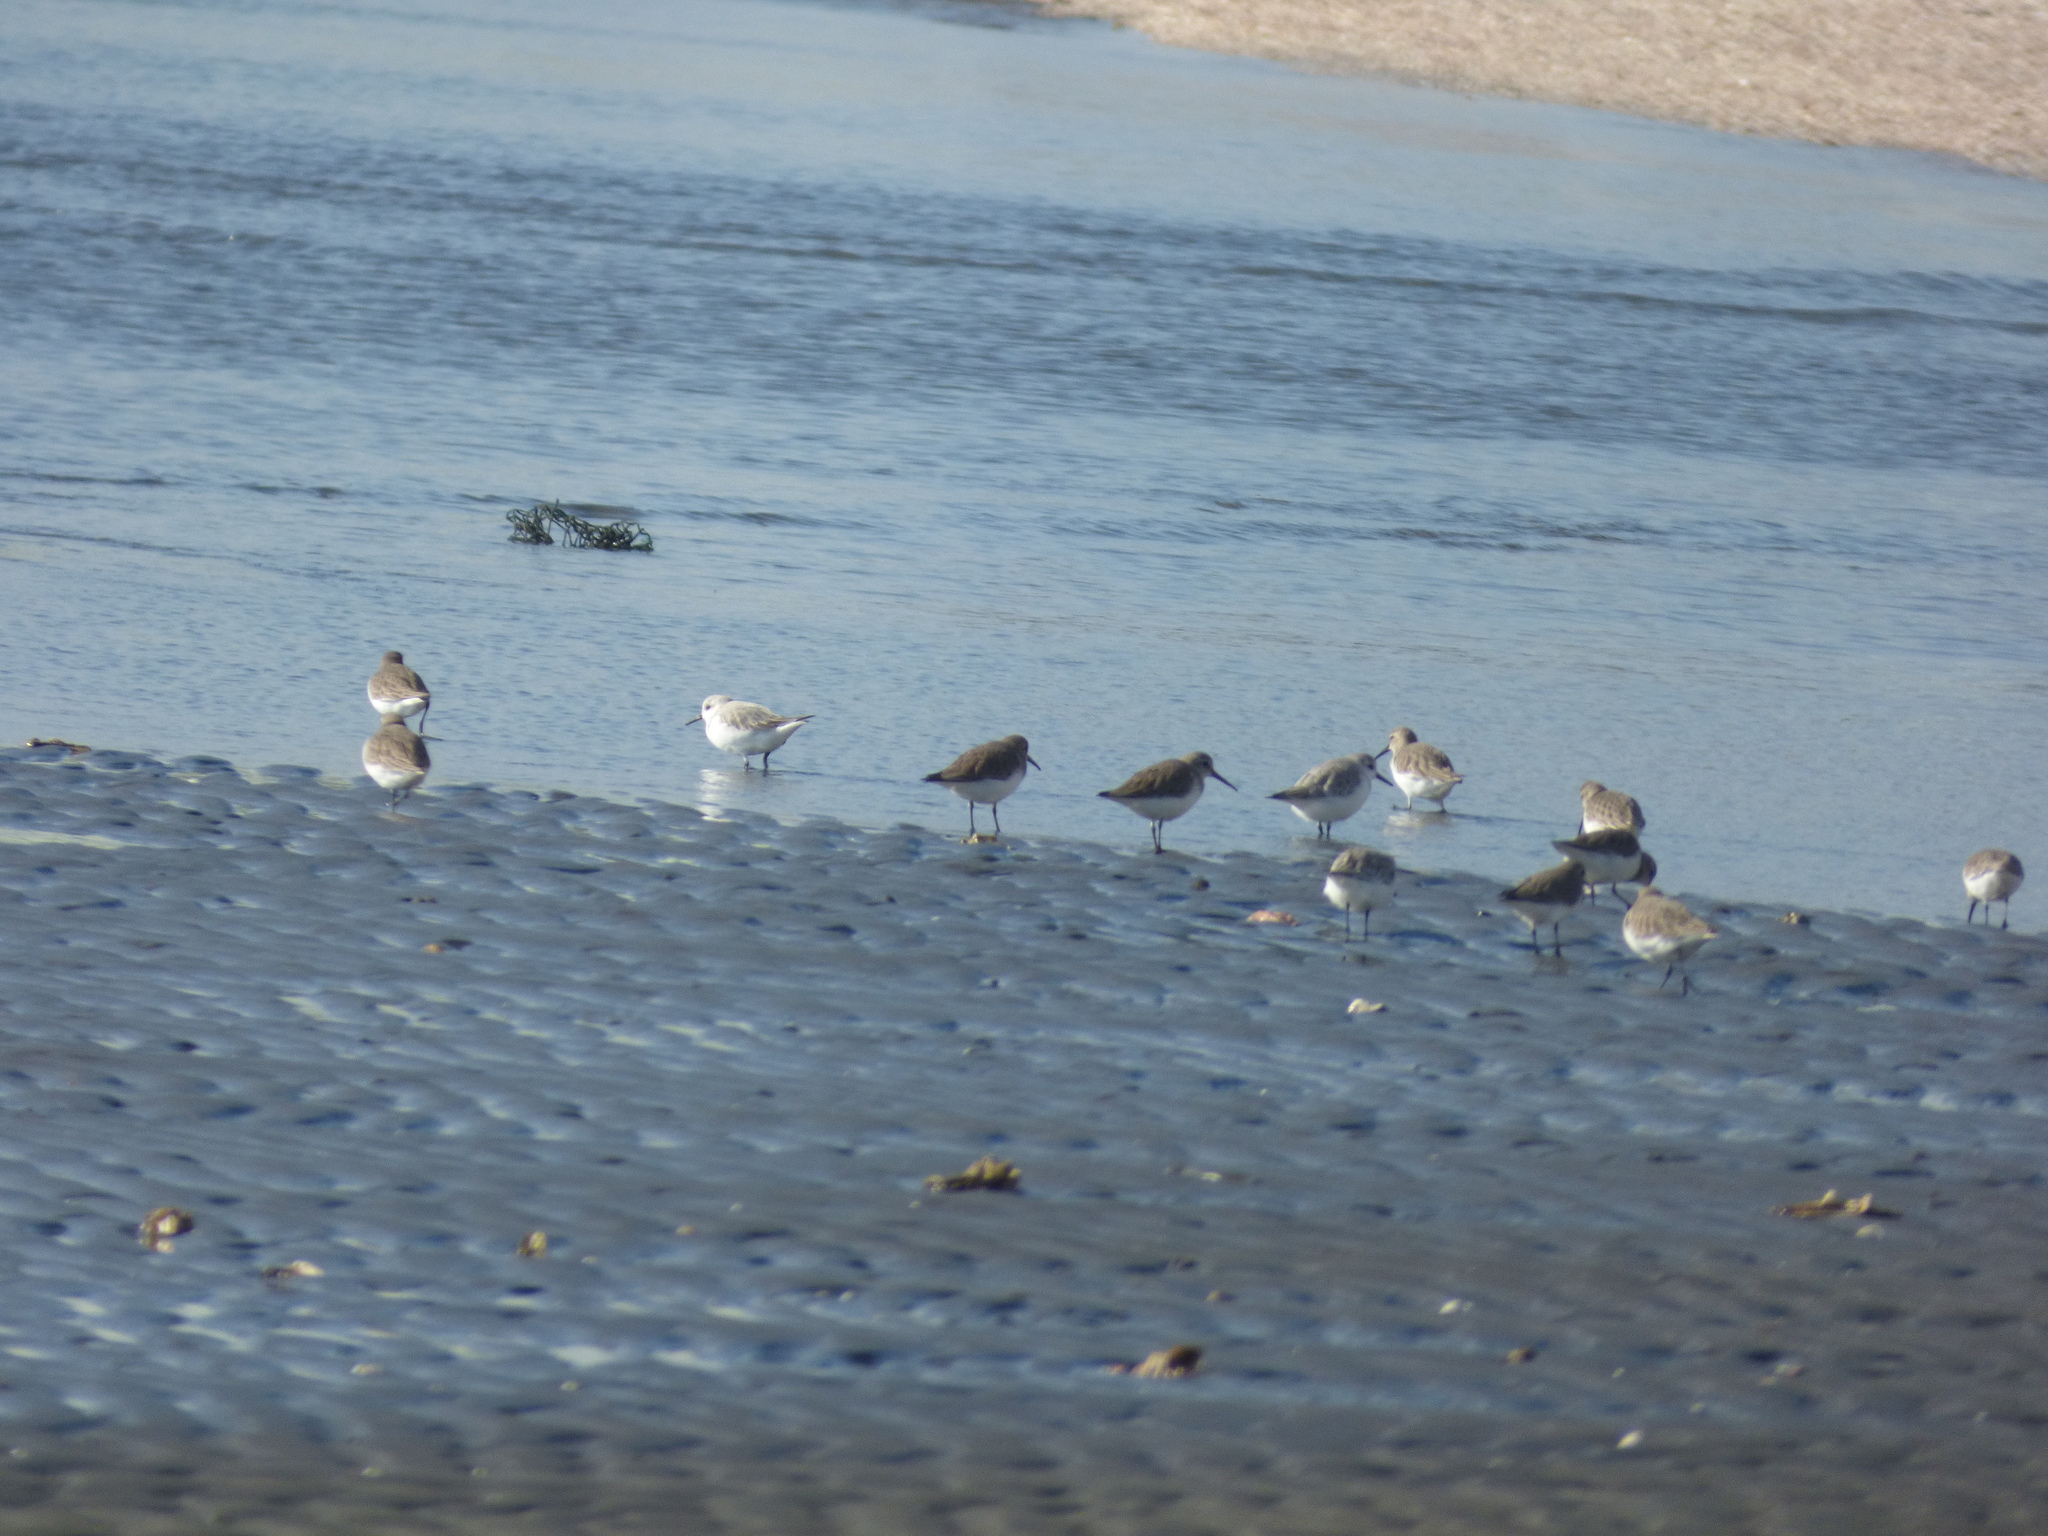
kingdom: Animalia
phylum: Chordata
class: Aves
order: Charadriiformes
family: Scolopacidae
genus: Calidris
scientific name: Calidris alba
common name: Sanderling
